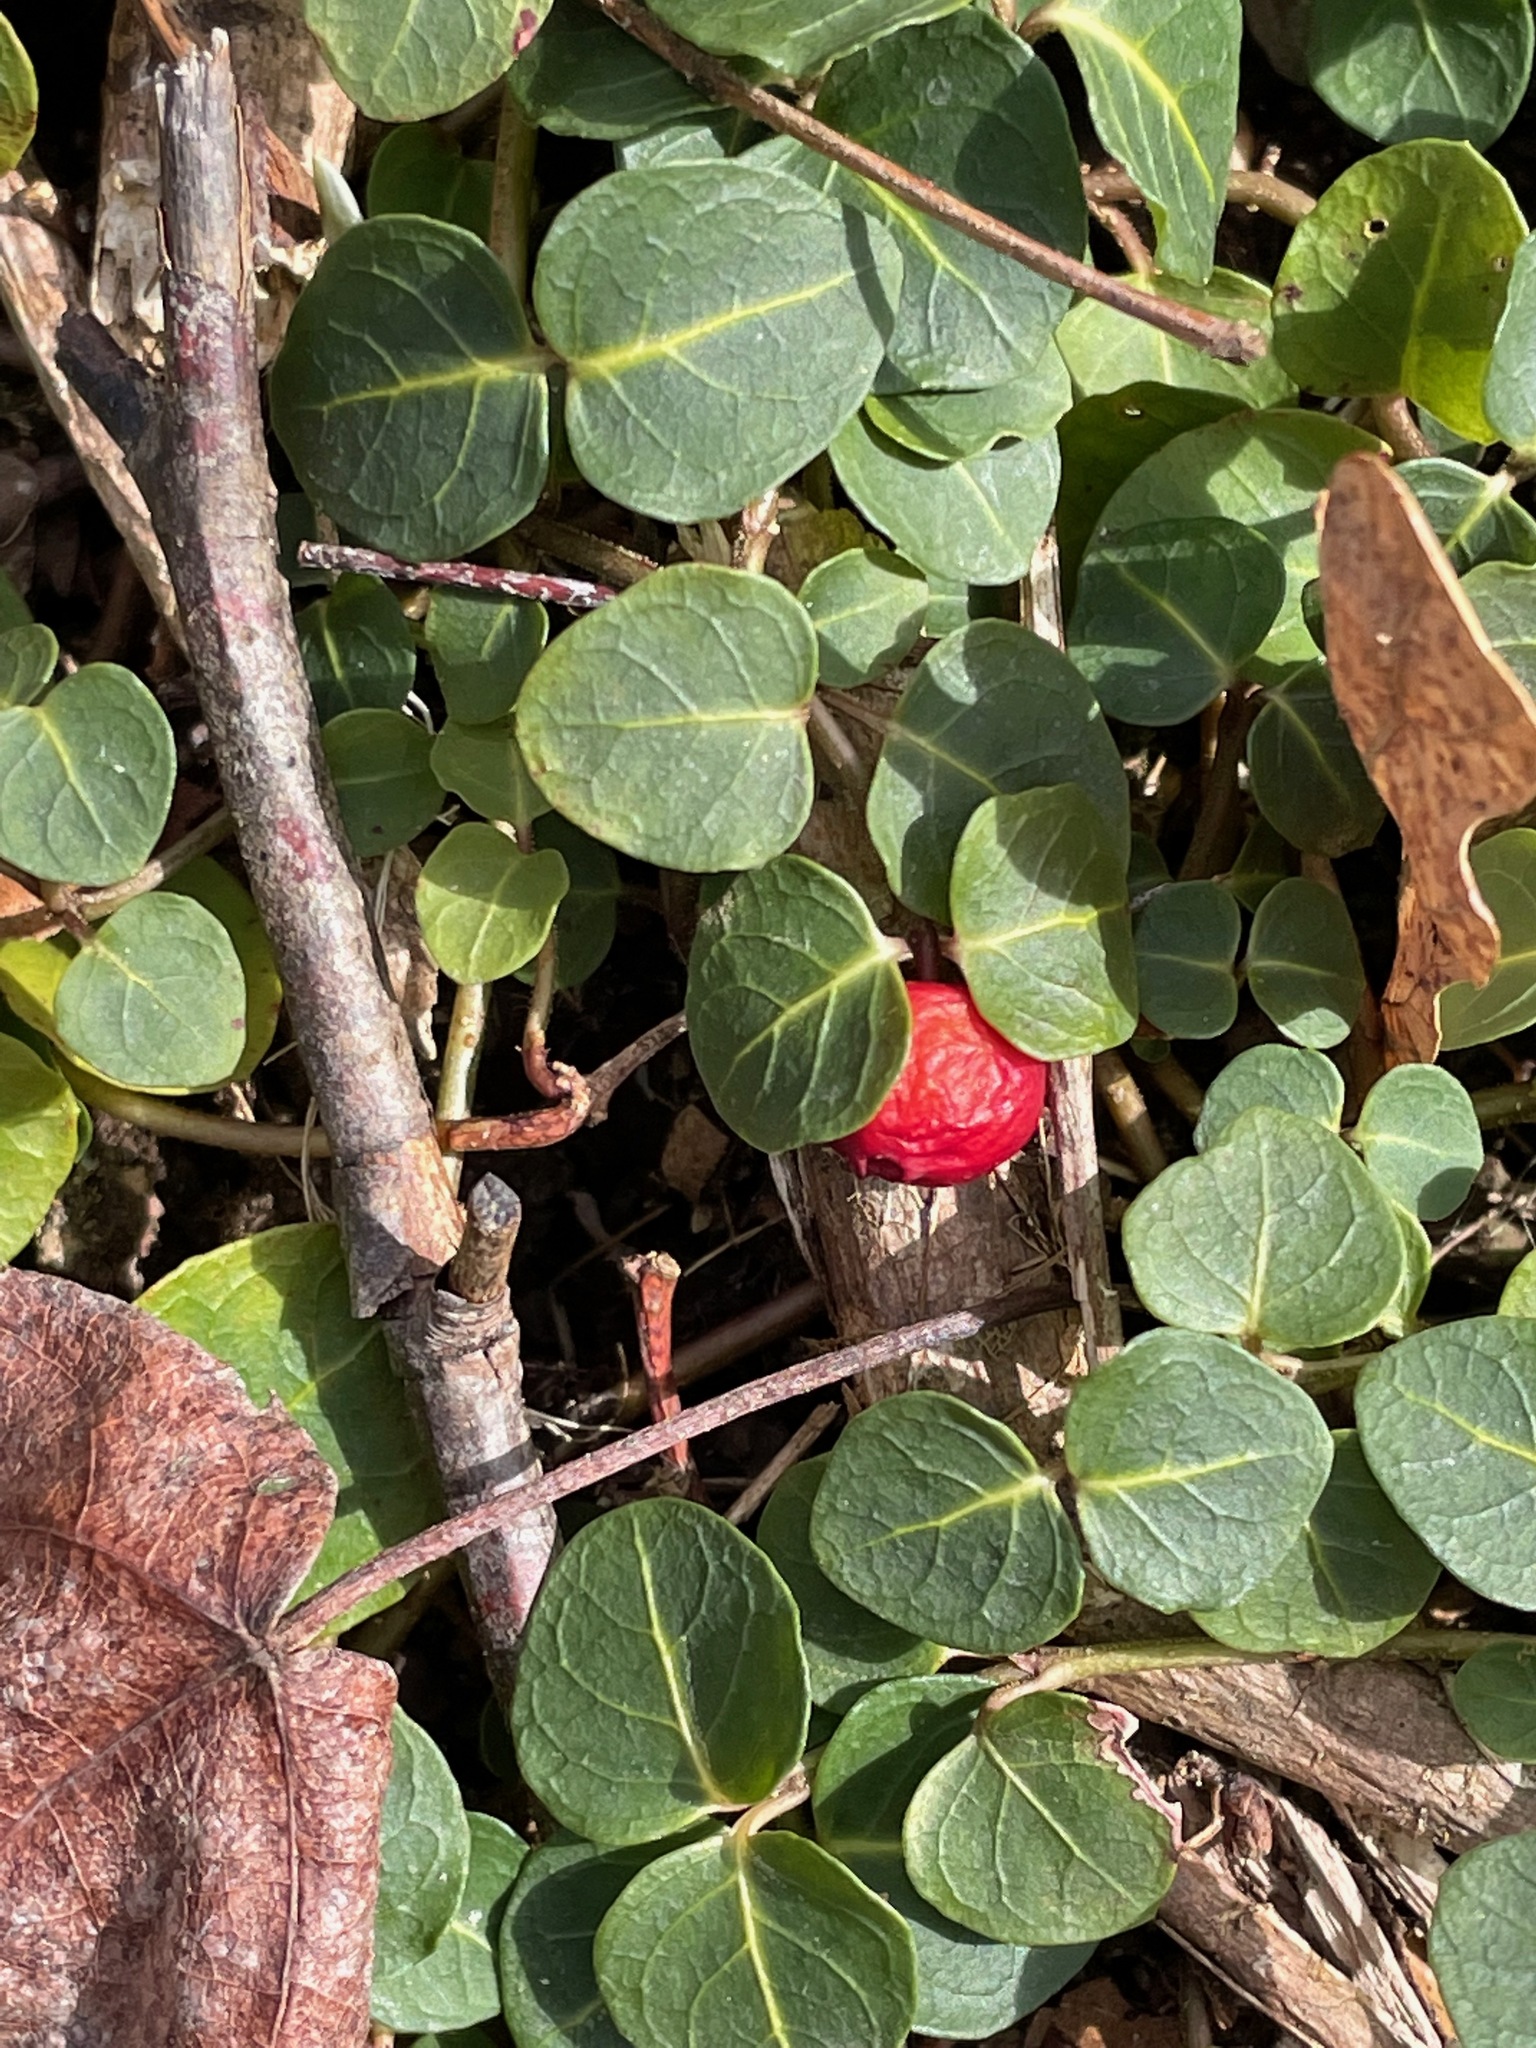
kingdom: Plantae
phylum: Tracheophyta
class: Magnoliopsida
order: Gentianales
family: Rubiaceae
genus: Mitchella
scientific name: Mitchella repens
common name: Partridge-berry
